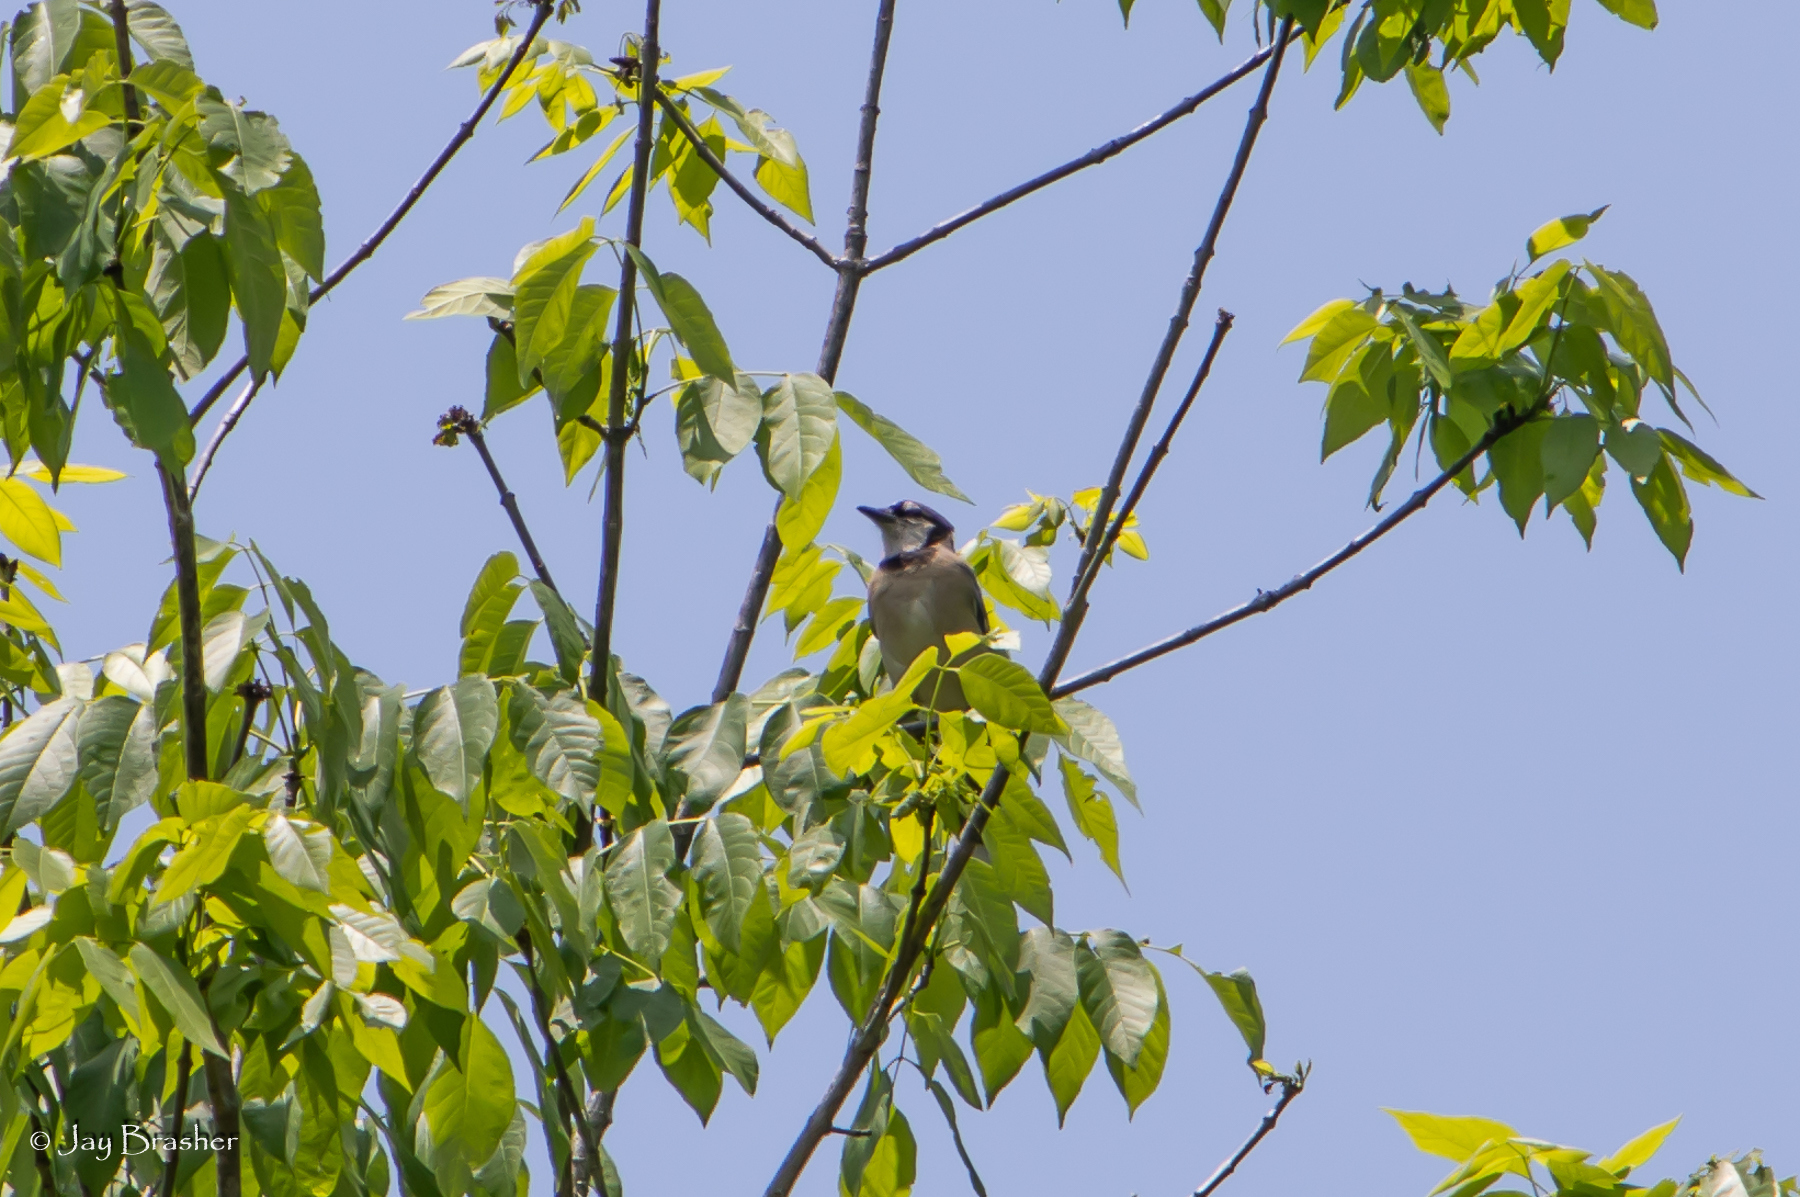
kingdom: Animalia
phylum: Chordata
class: Aves
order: Passeriformes
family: Corvidae
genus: Cyanocitta
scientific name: Cyanocitta cristata
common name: Blue jay
